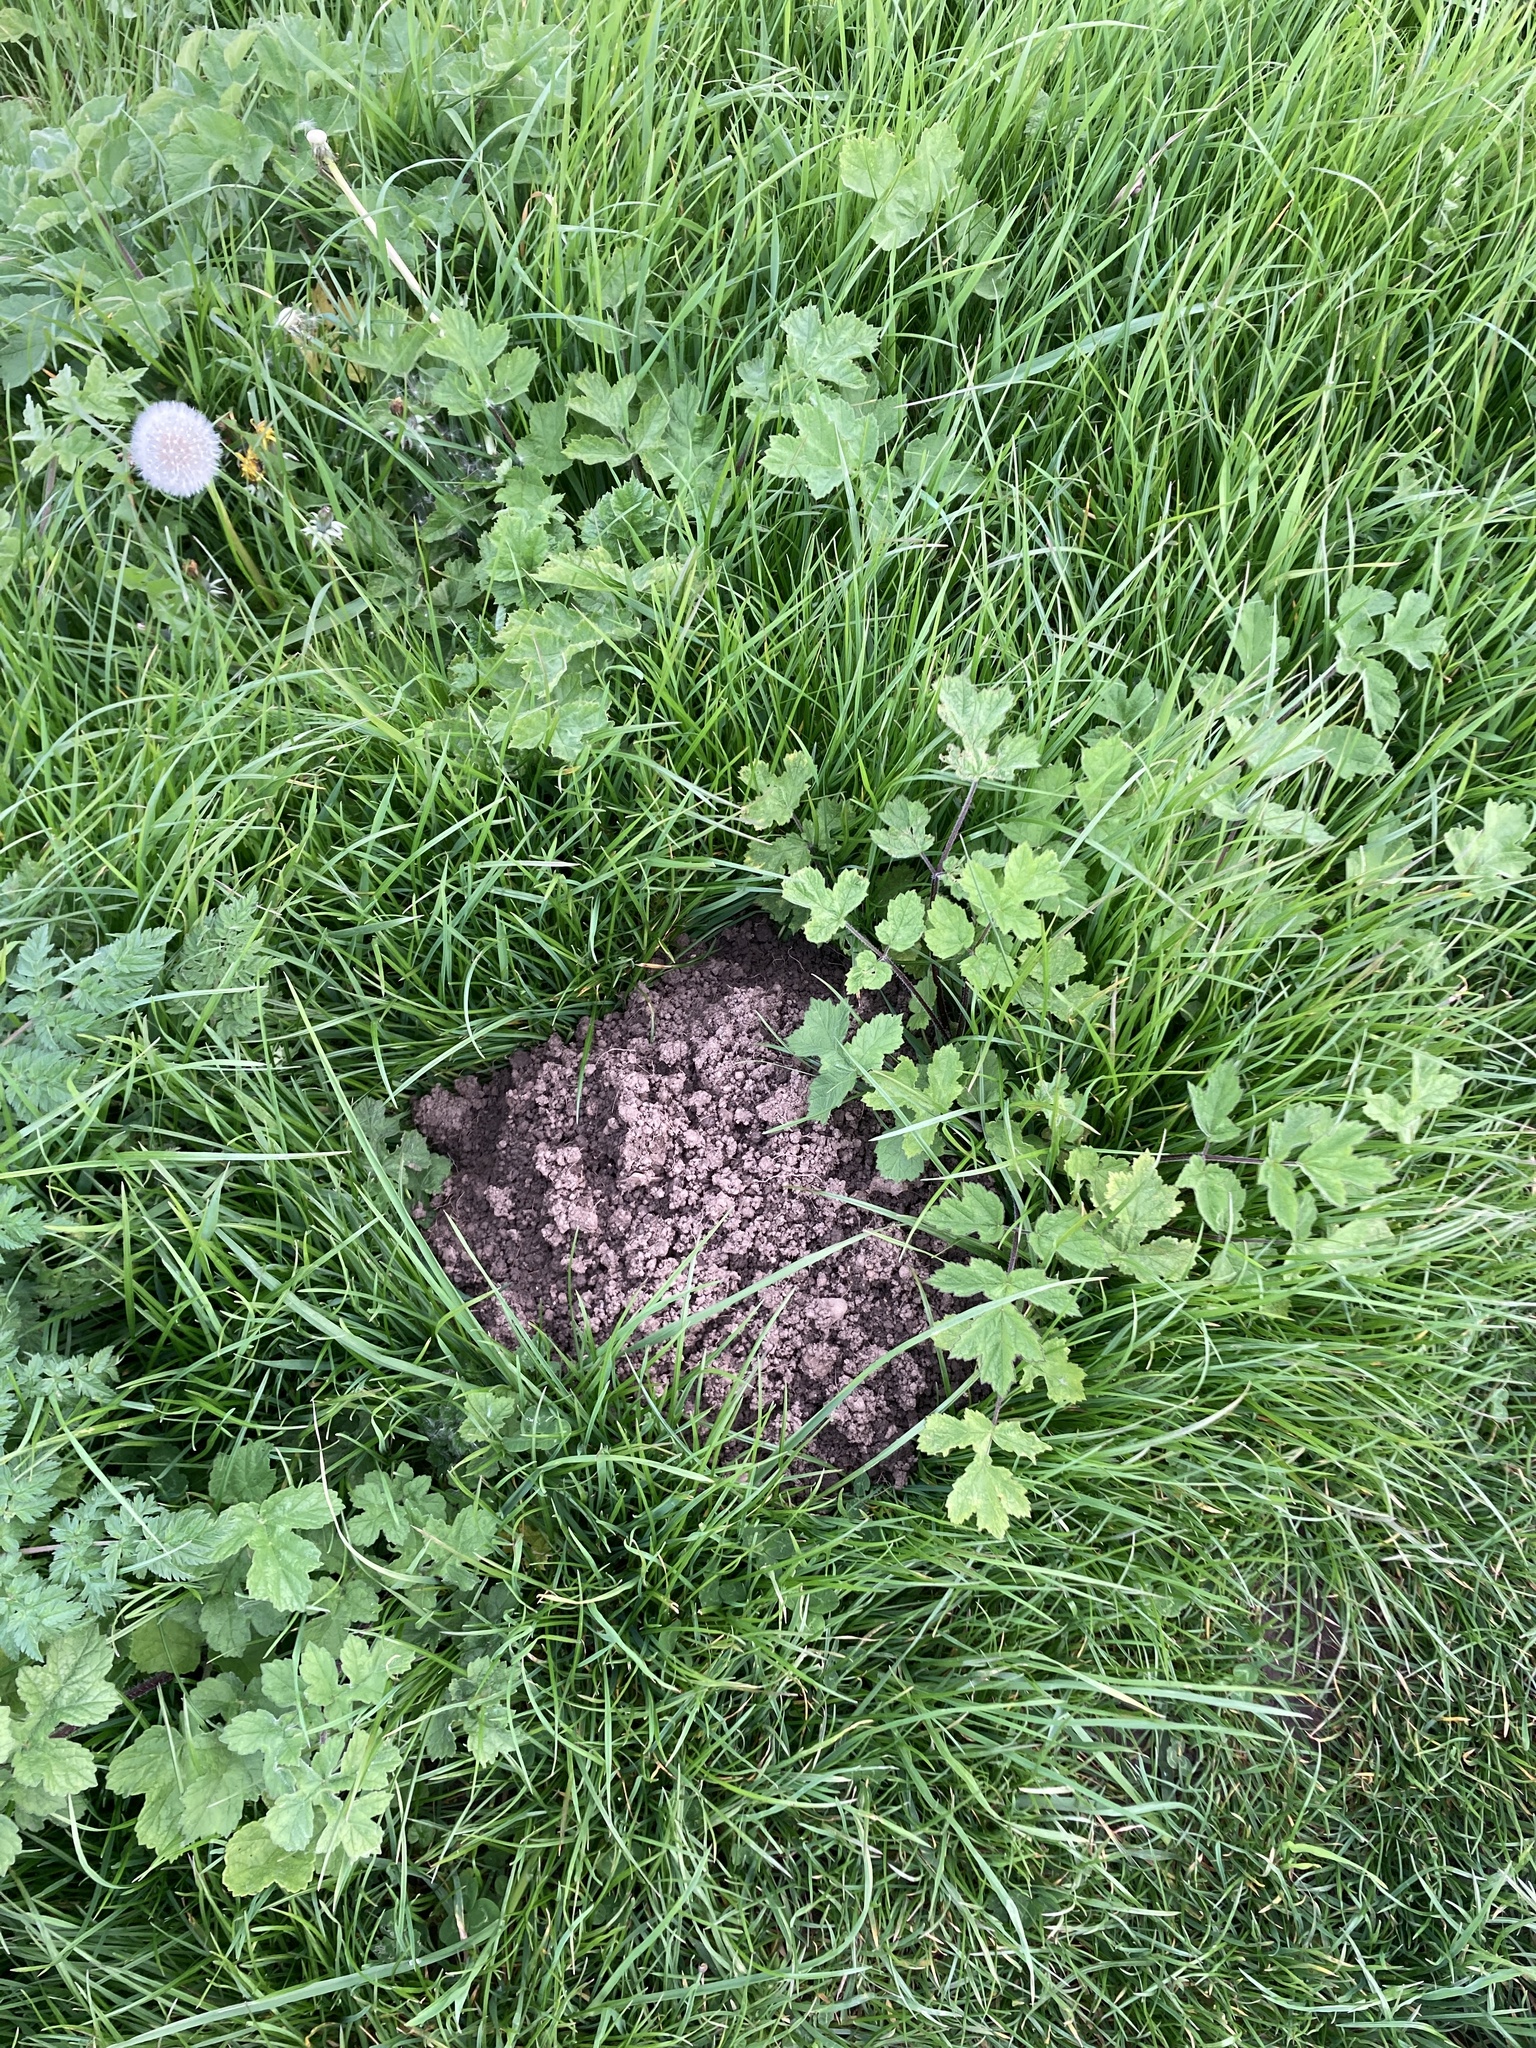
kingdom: Animalia
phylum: Chordata
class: Mammalia
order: Soricomorpha
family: Talpidae
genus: Talpa
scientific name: Talpa europaea
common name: European mole
